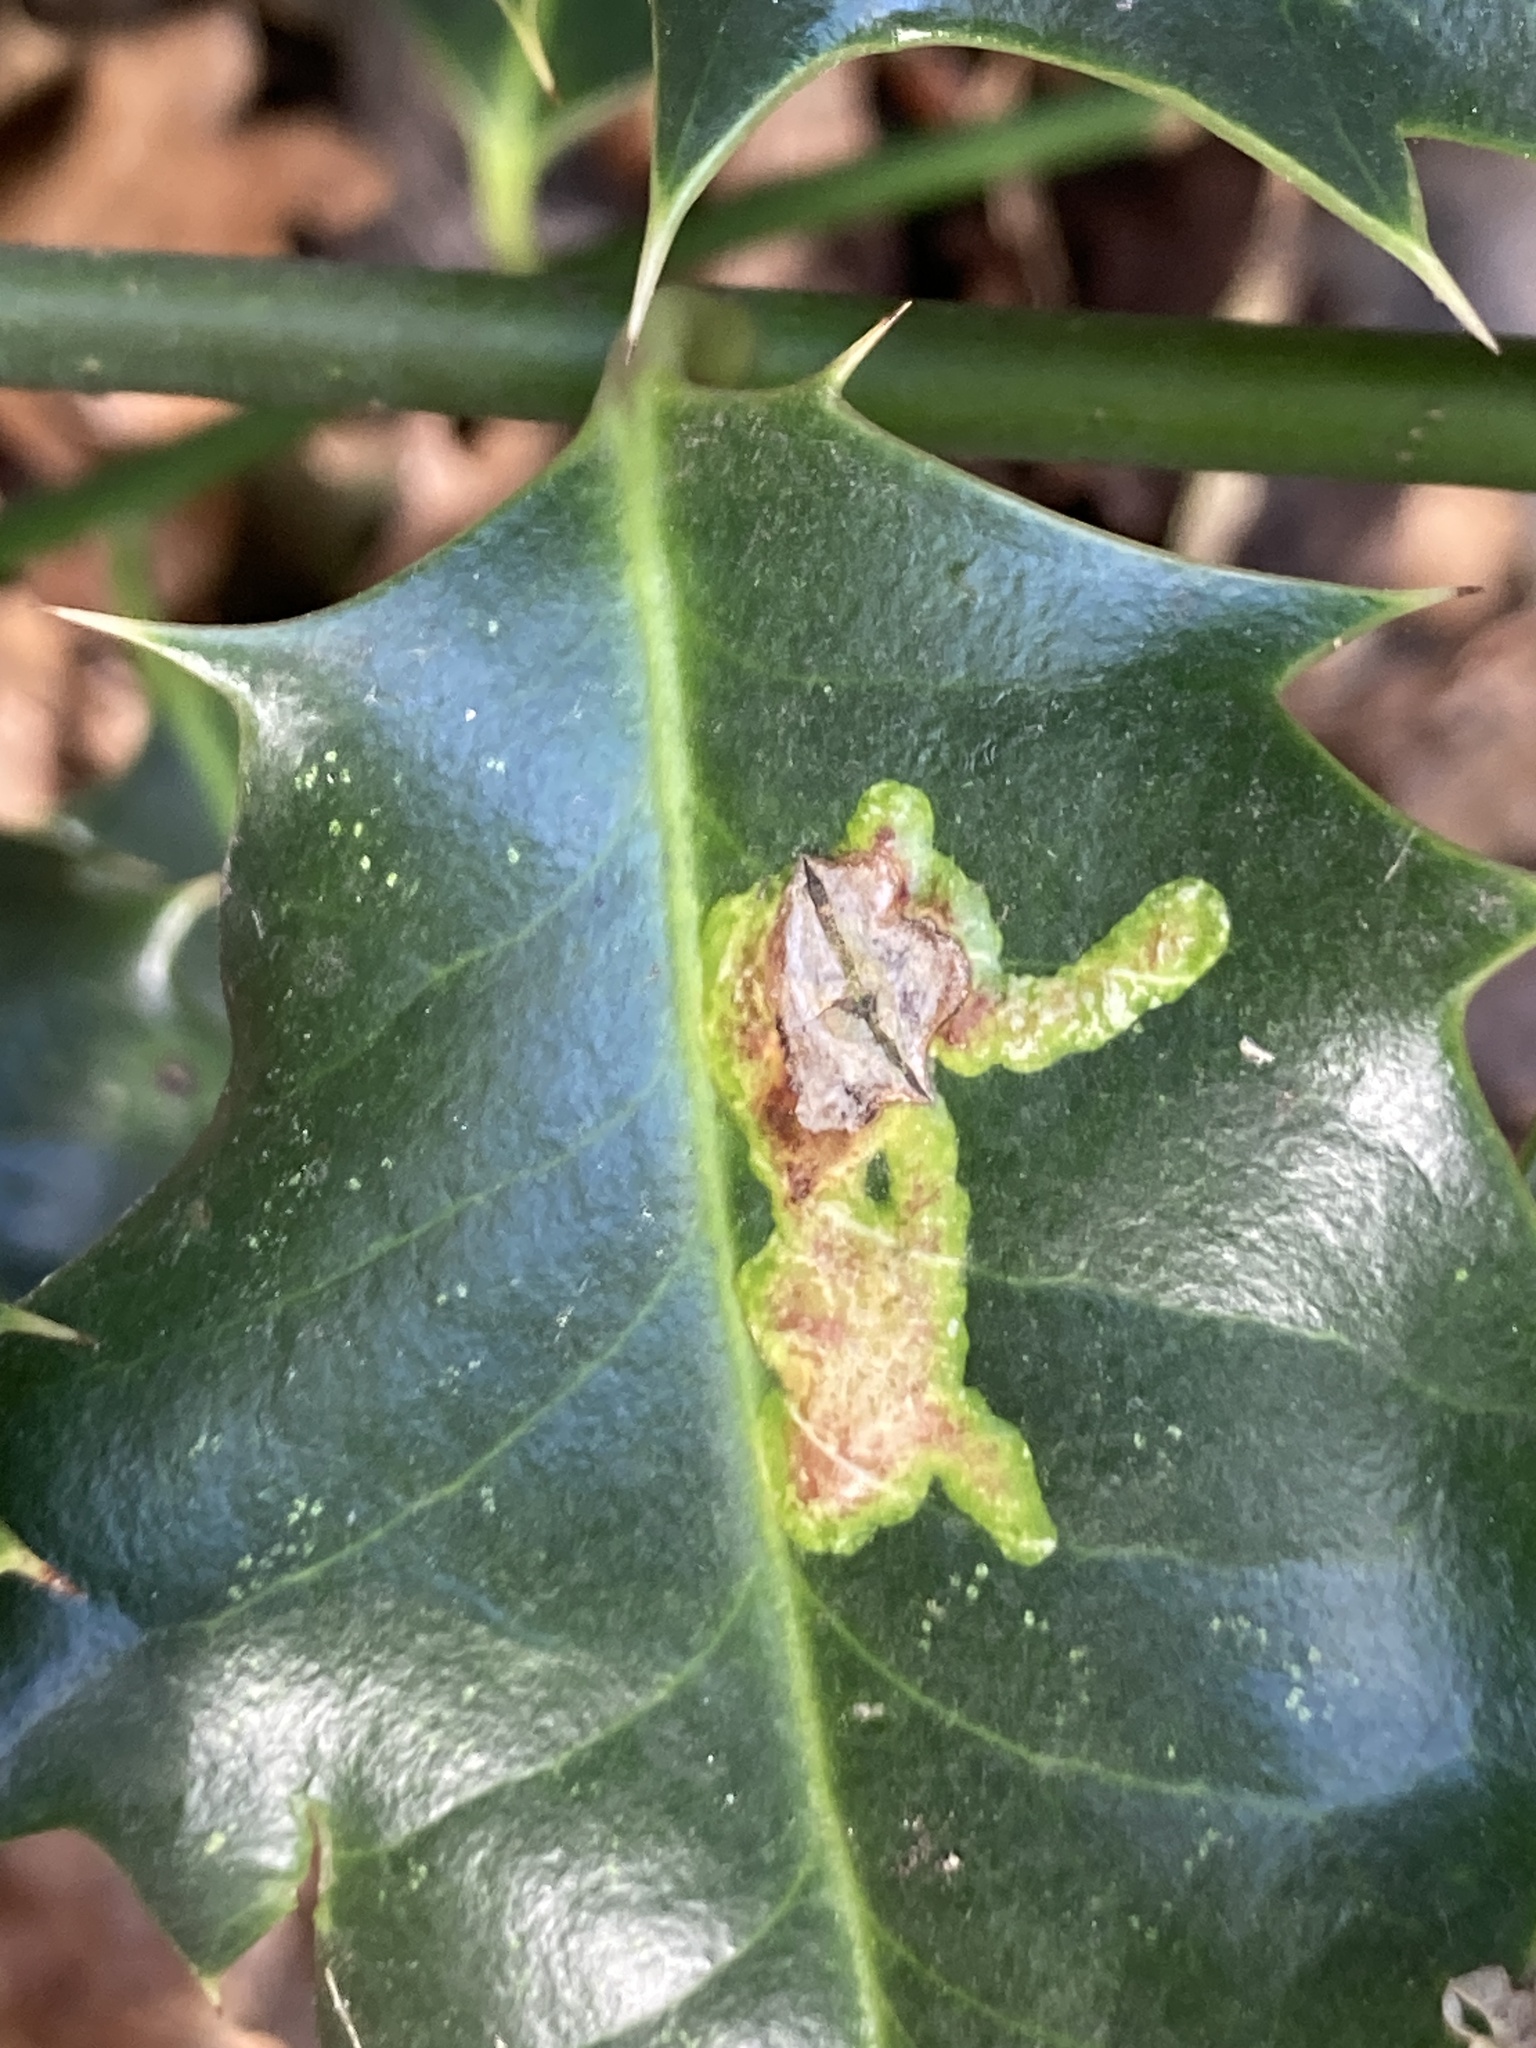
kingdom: Animalia
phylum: Arthropoda
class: Insecta
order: Diptera
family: Agromyzidae
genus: Phytomyza
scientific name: Phytomyza ilicis
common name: Holly leafminer
